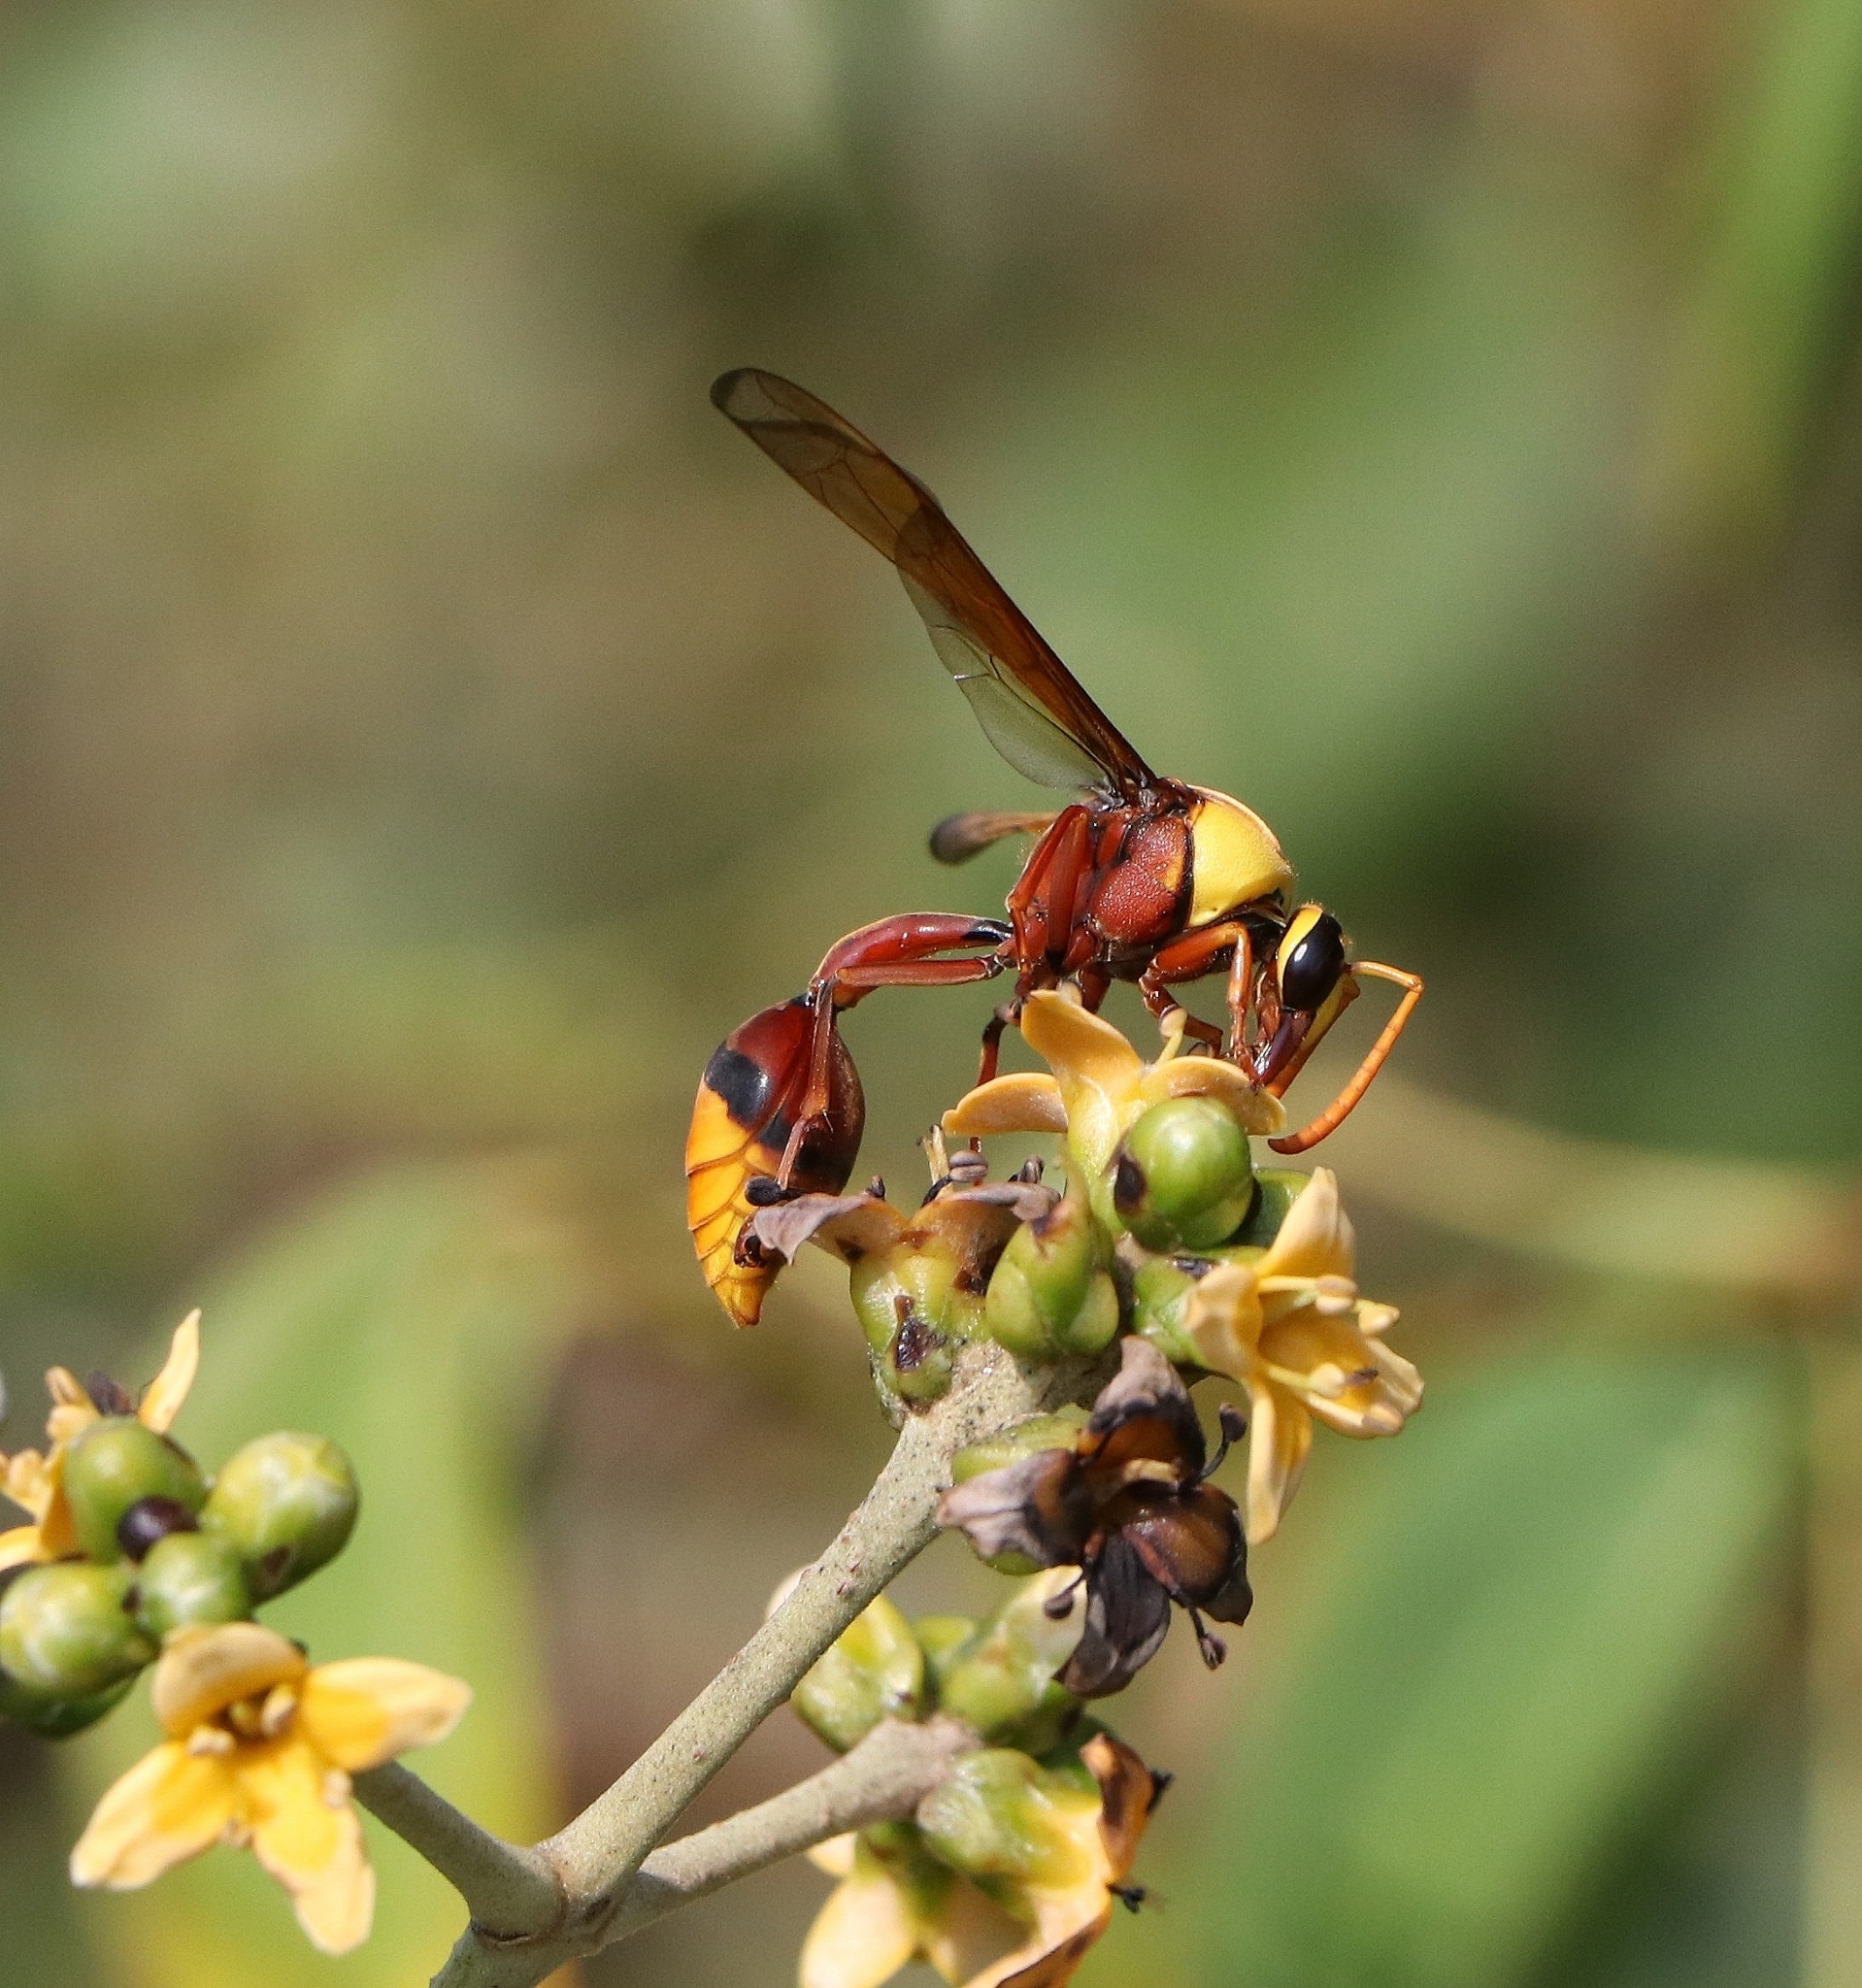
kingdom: Animalia
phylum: Arthropoda
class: Insecta
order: Hymenoptera
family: Eumenidae
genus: Delta
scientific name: Delta pyriforme
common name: Wasp
